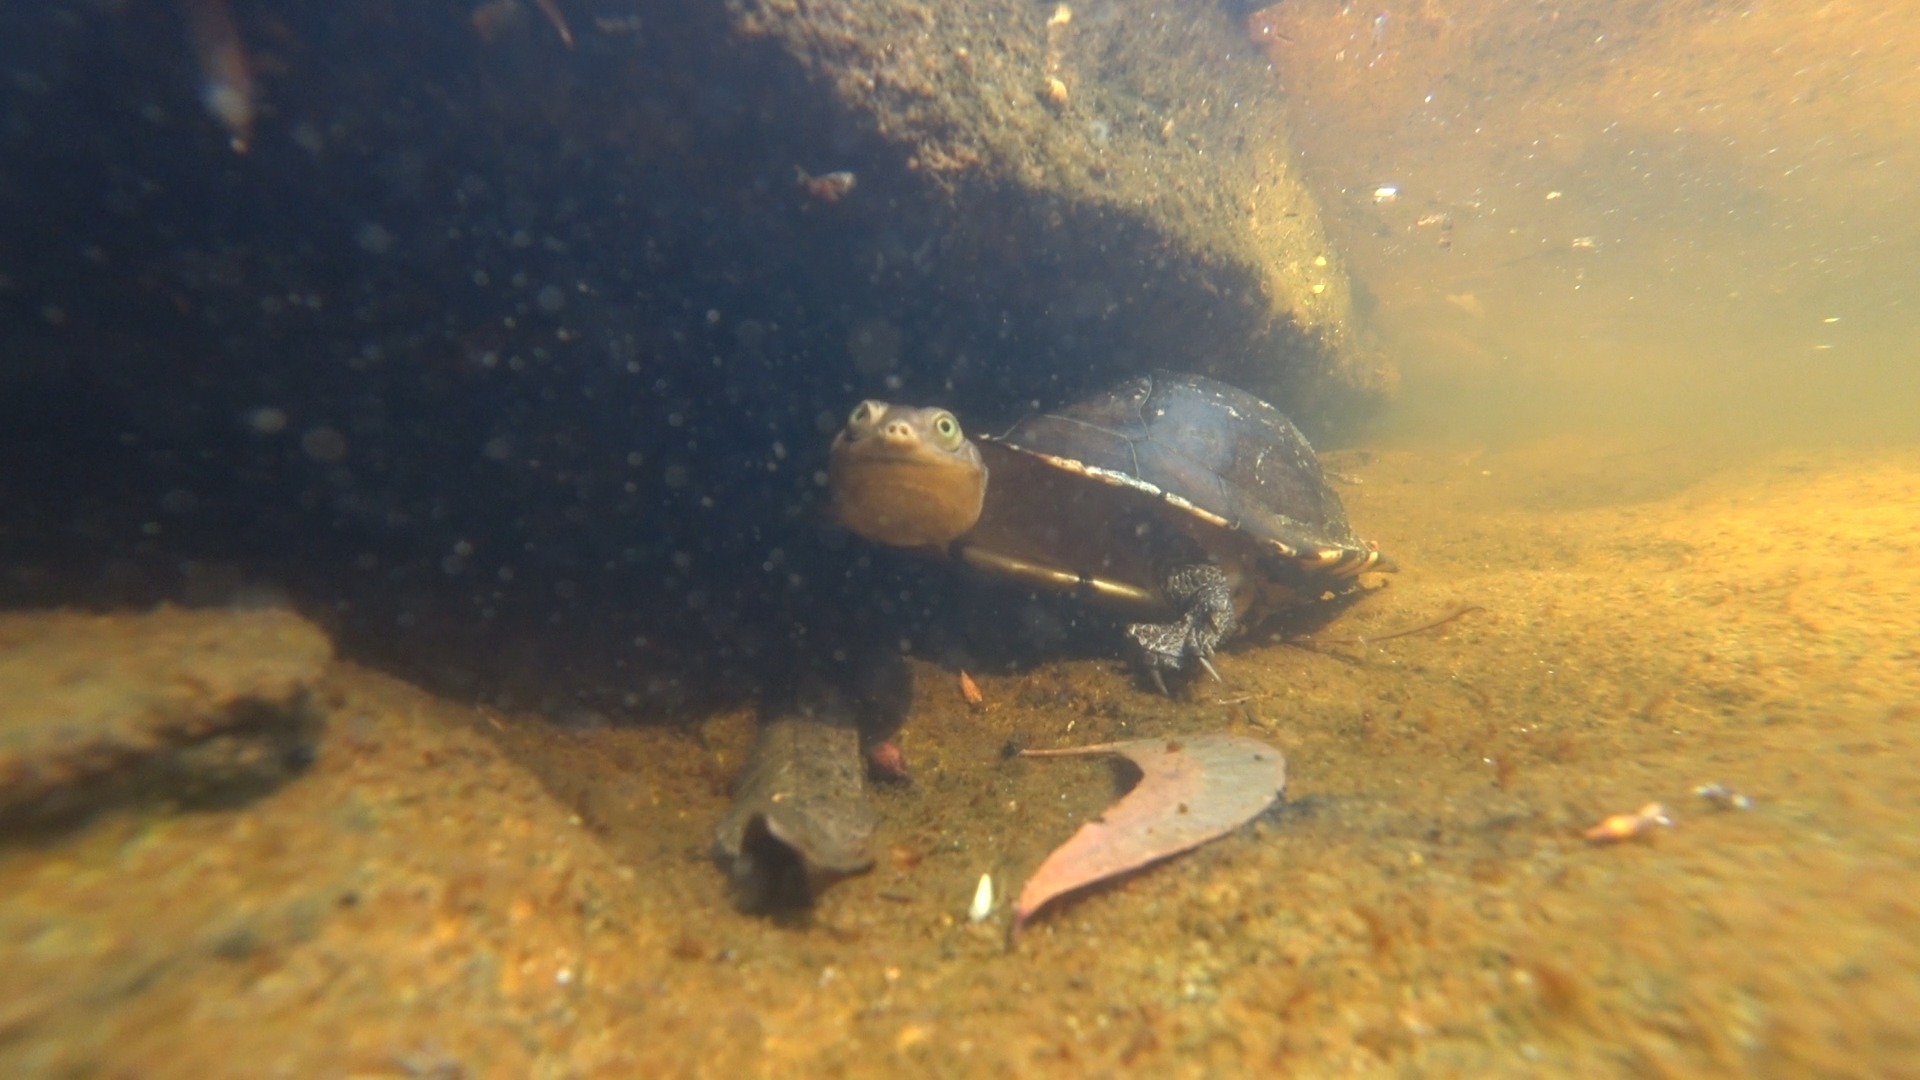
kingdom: Animalia
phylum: Chordata
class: Testudines
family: Chelidae
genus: Chelodina
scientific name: Chelodina longicollis
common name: Eastern snake-necked turtle
